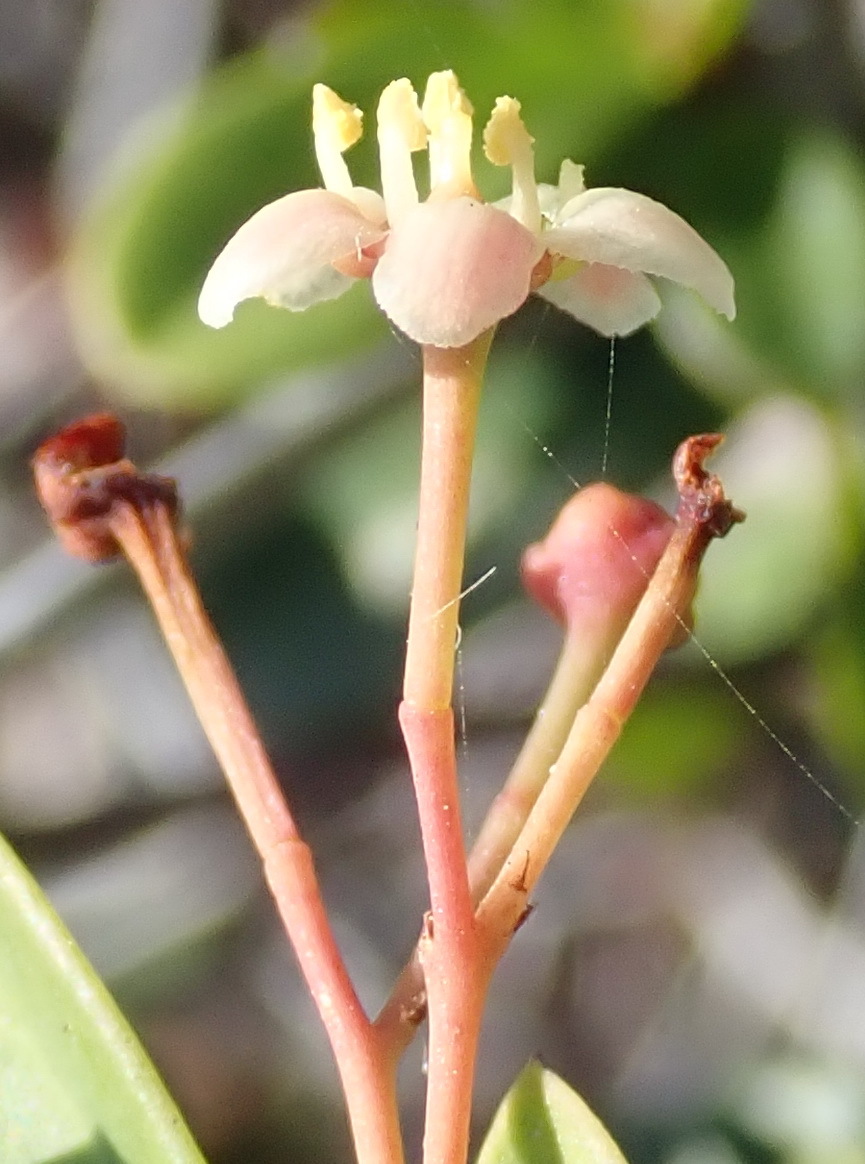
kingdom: Plantae
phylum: Tracheophyta
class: Magnoliopsida
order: Celastrales
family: Celastraceae
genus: Putterlickia
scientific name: Putterlickia pyracantha
